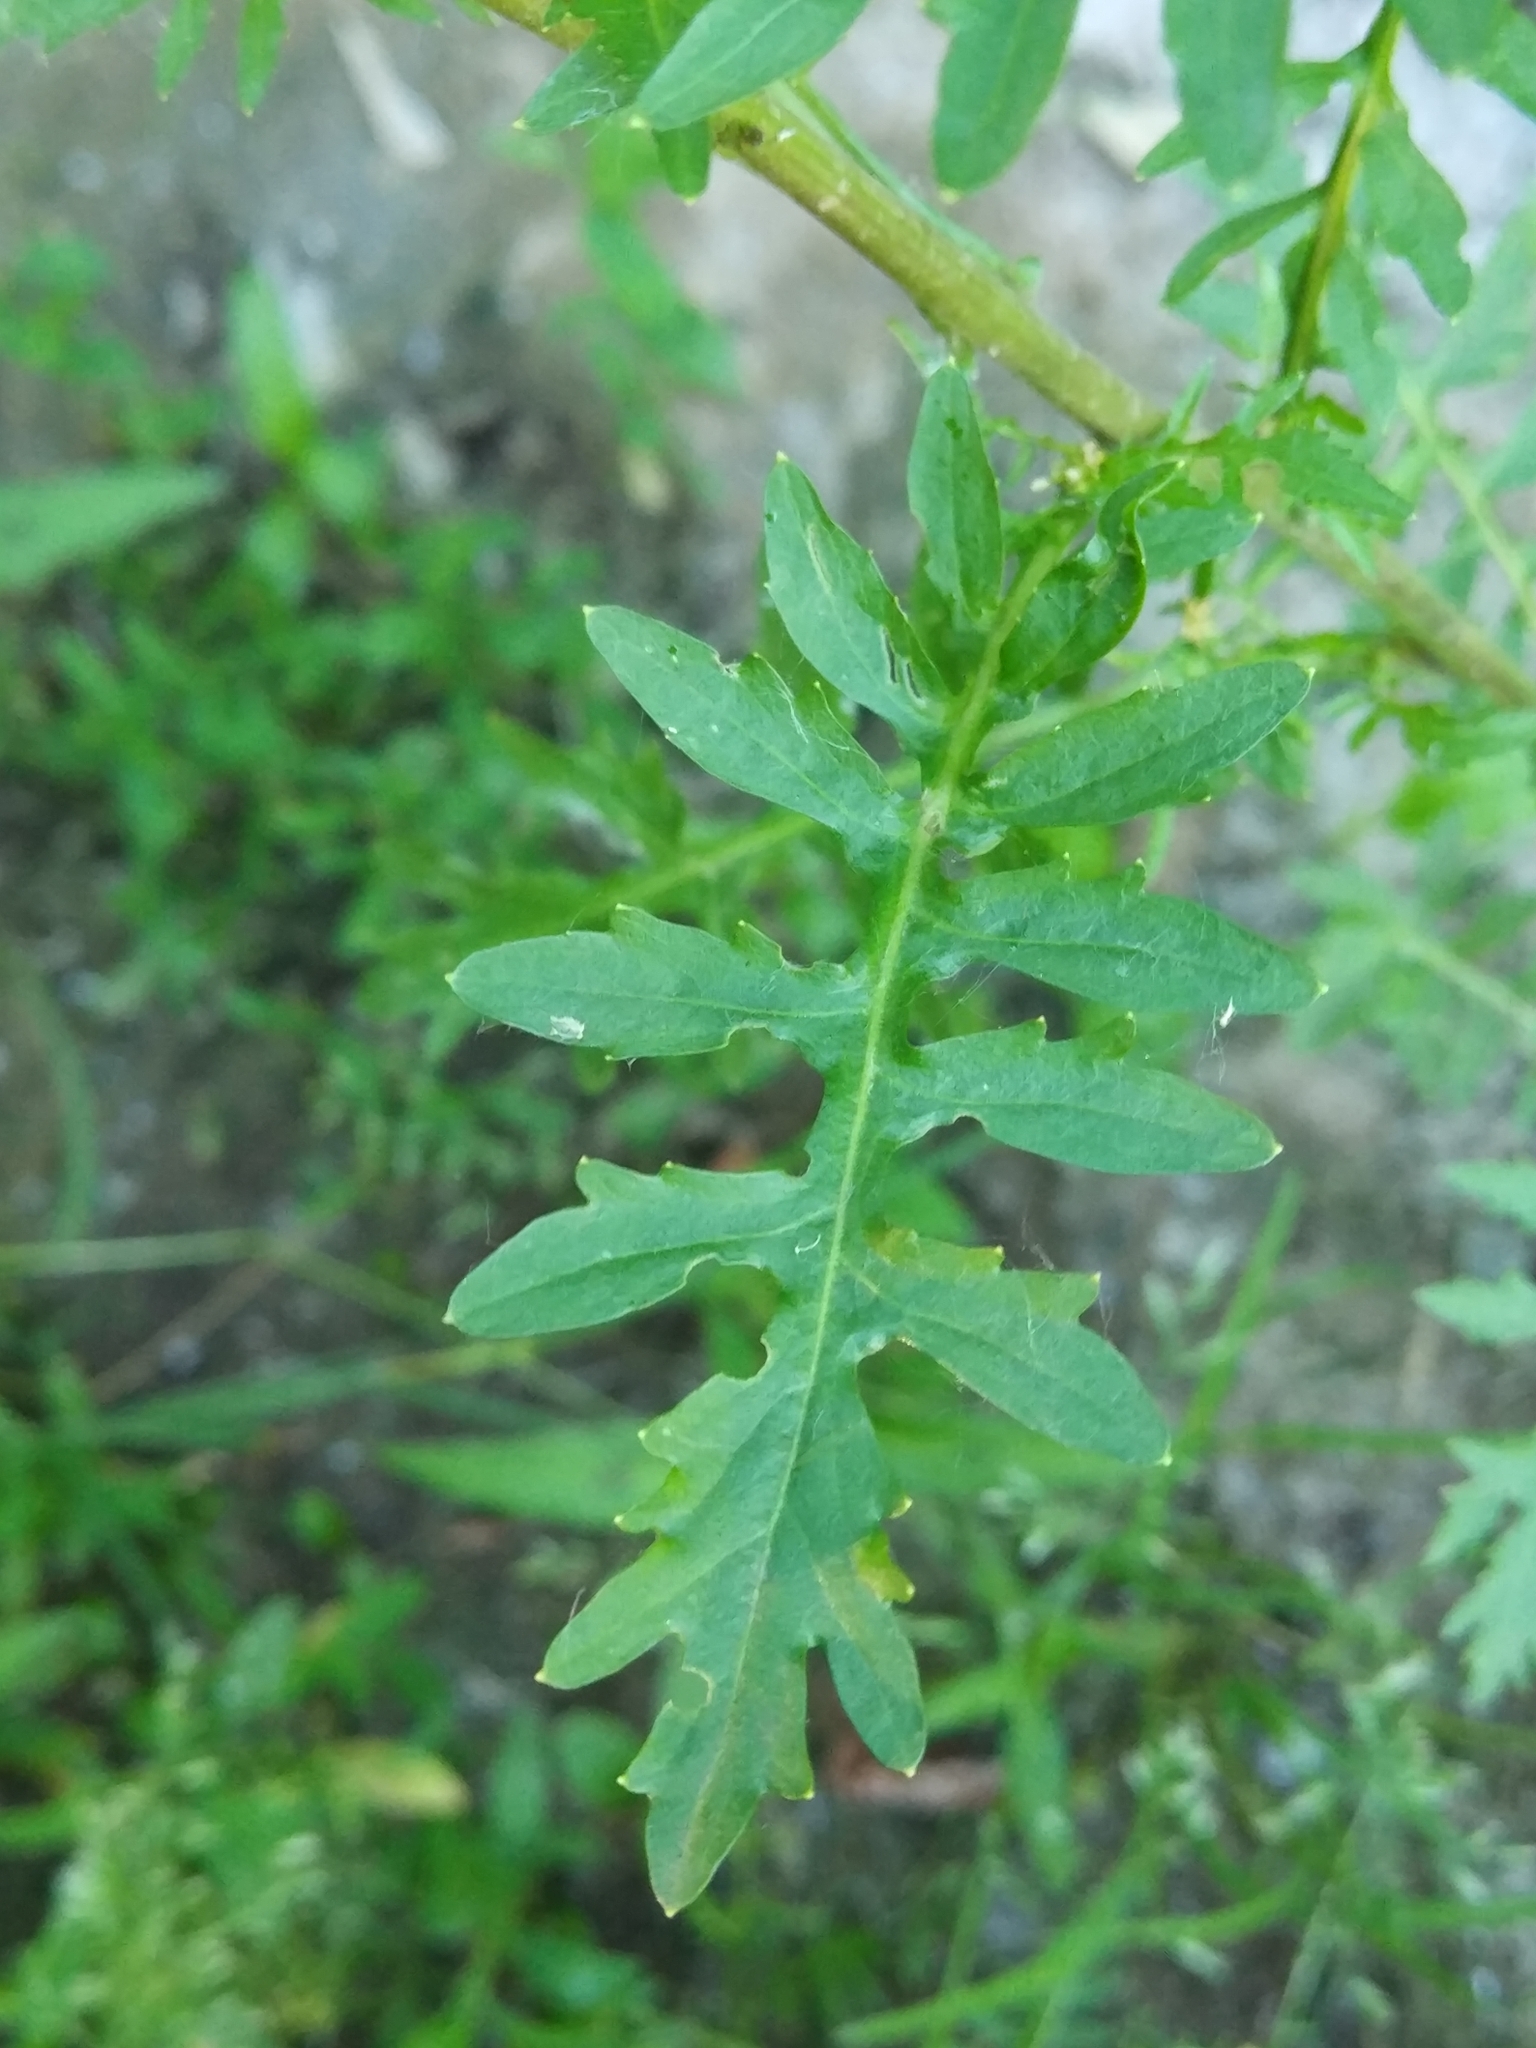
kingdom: Plantae
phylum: Tracheophyta
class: Magnoliopsida
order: Brassicales
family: Brassicaceae
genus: Rorippa
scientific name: Rorippa palustris
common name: Marsh yellow-cress
